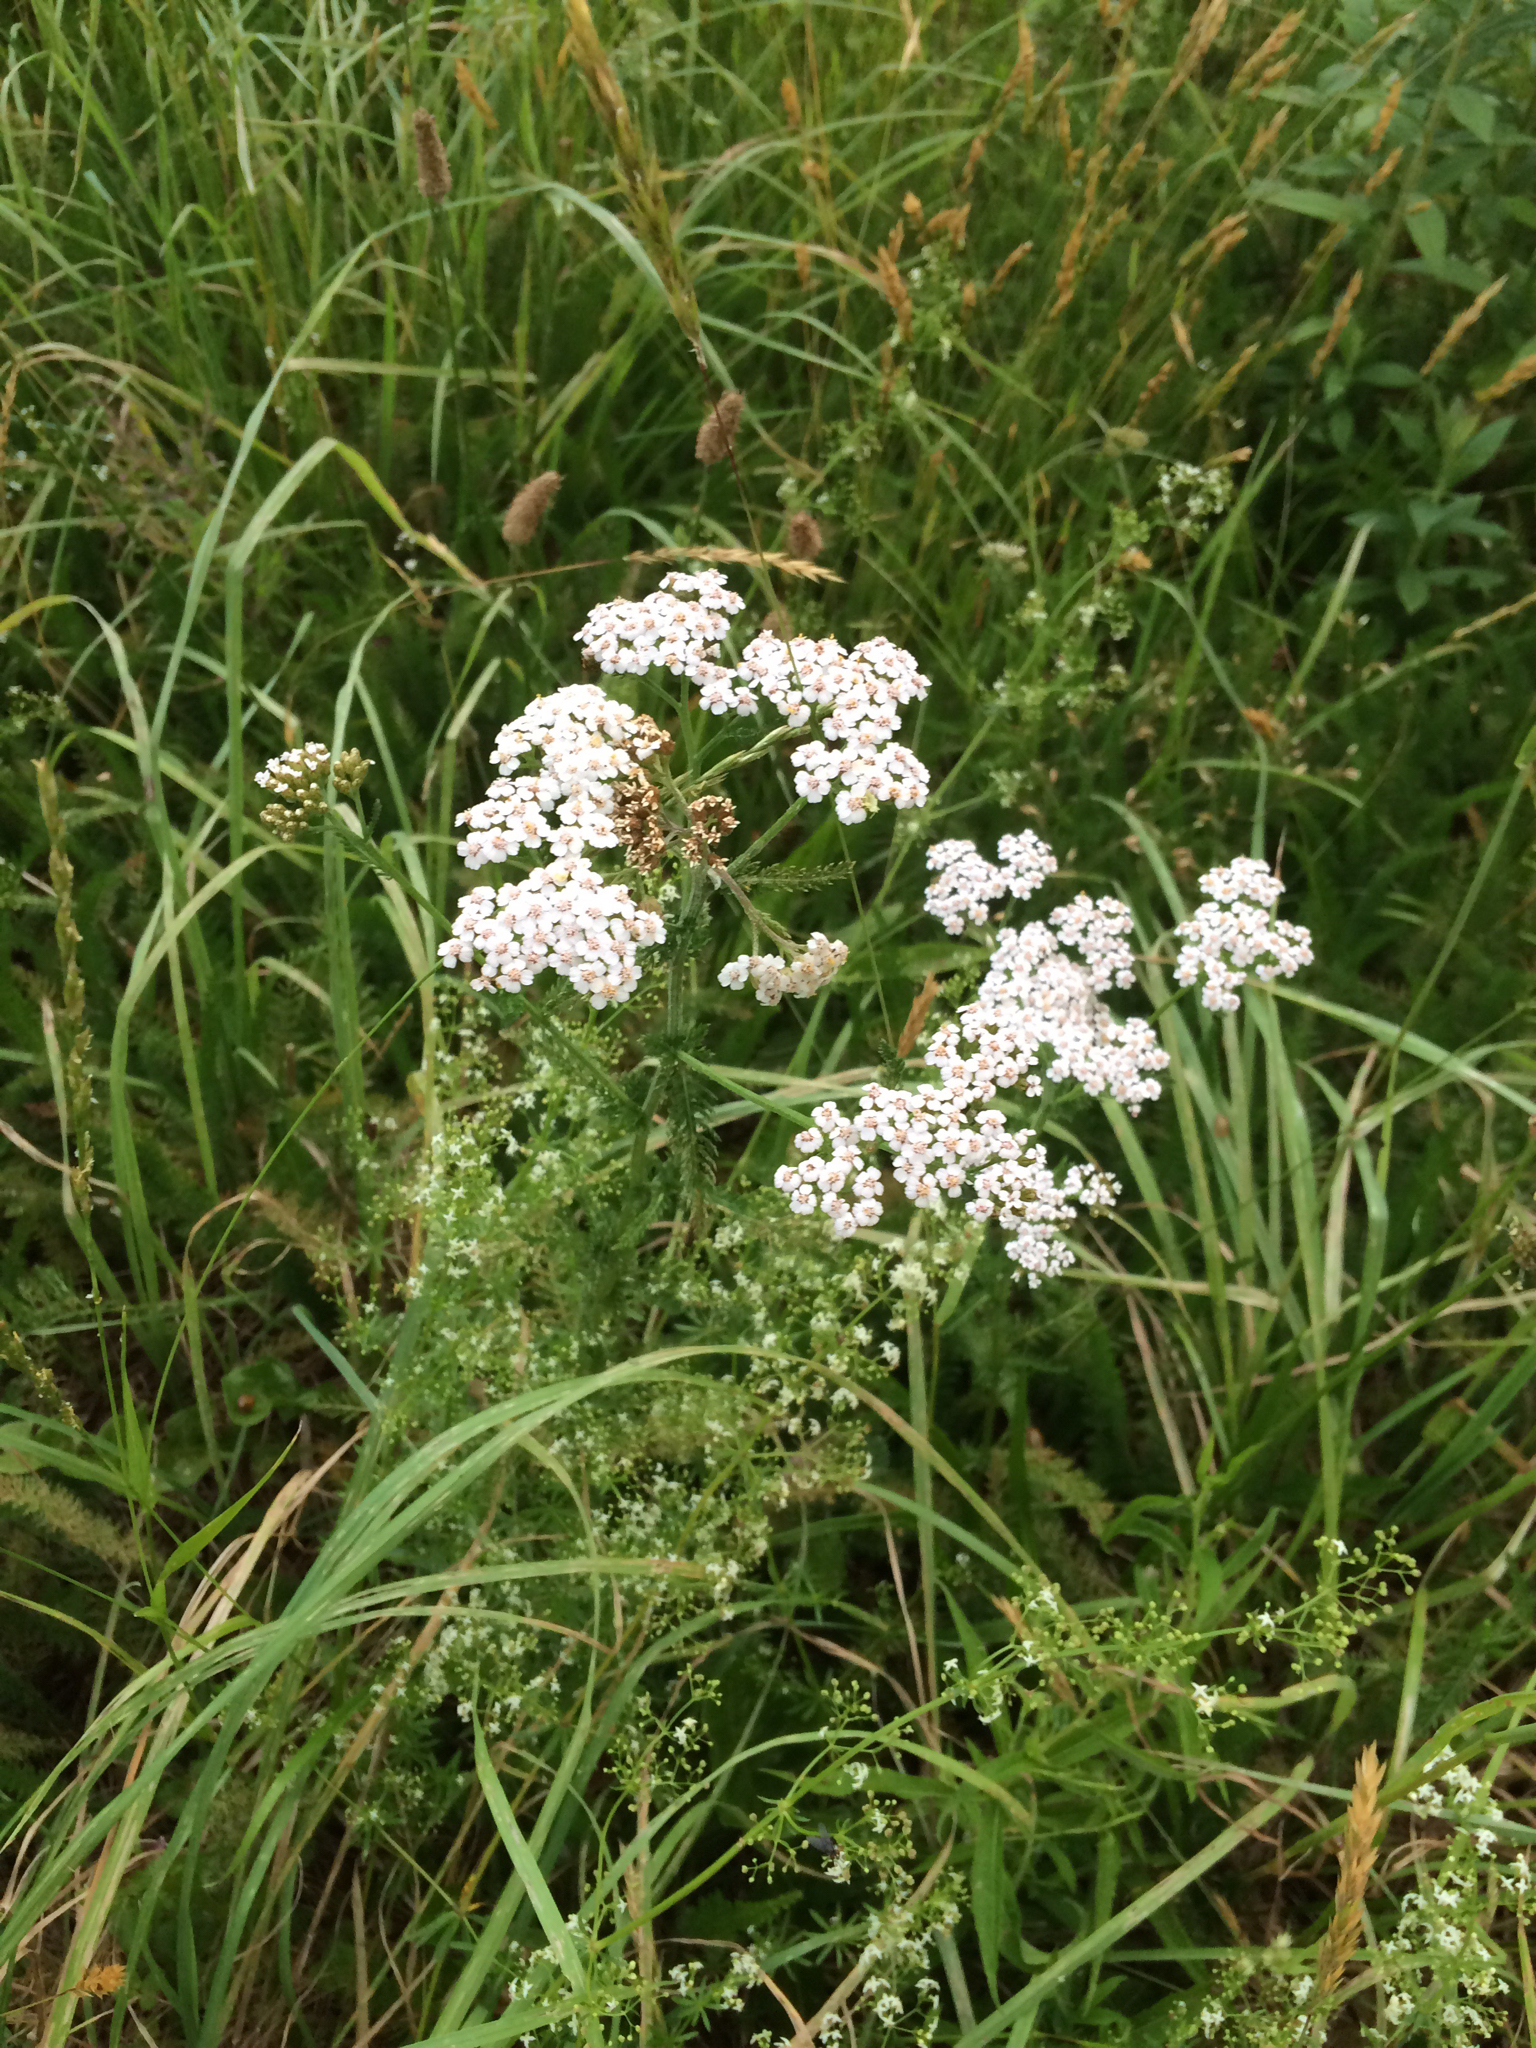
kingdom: Plantae
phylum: Tracheophyta
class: Magnoliopsida
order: Asterales
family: Asteraceae
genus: Achillea
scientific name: Achillea millefolium
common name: Yarrow
